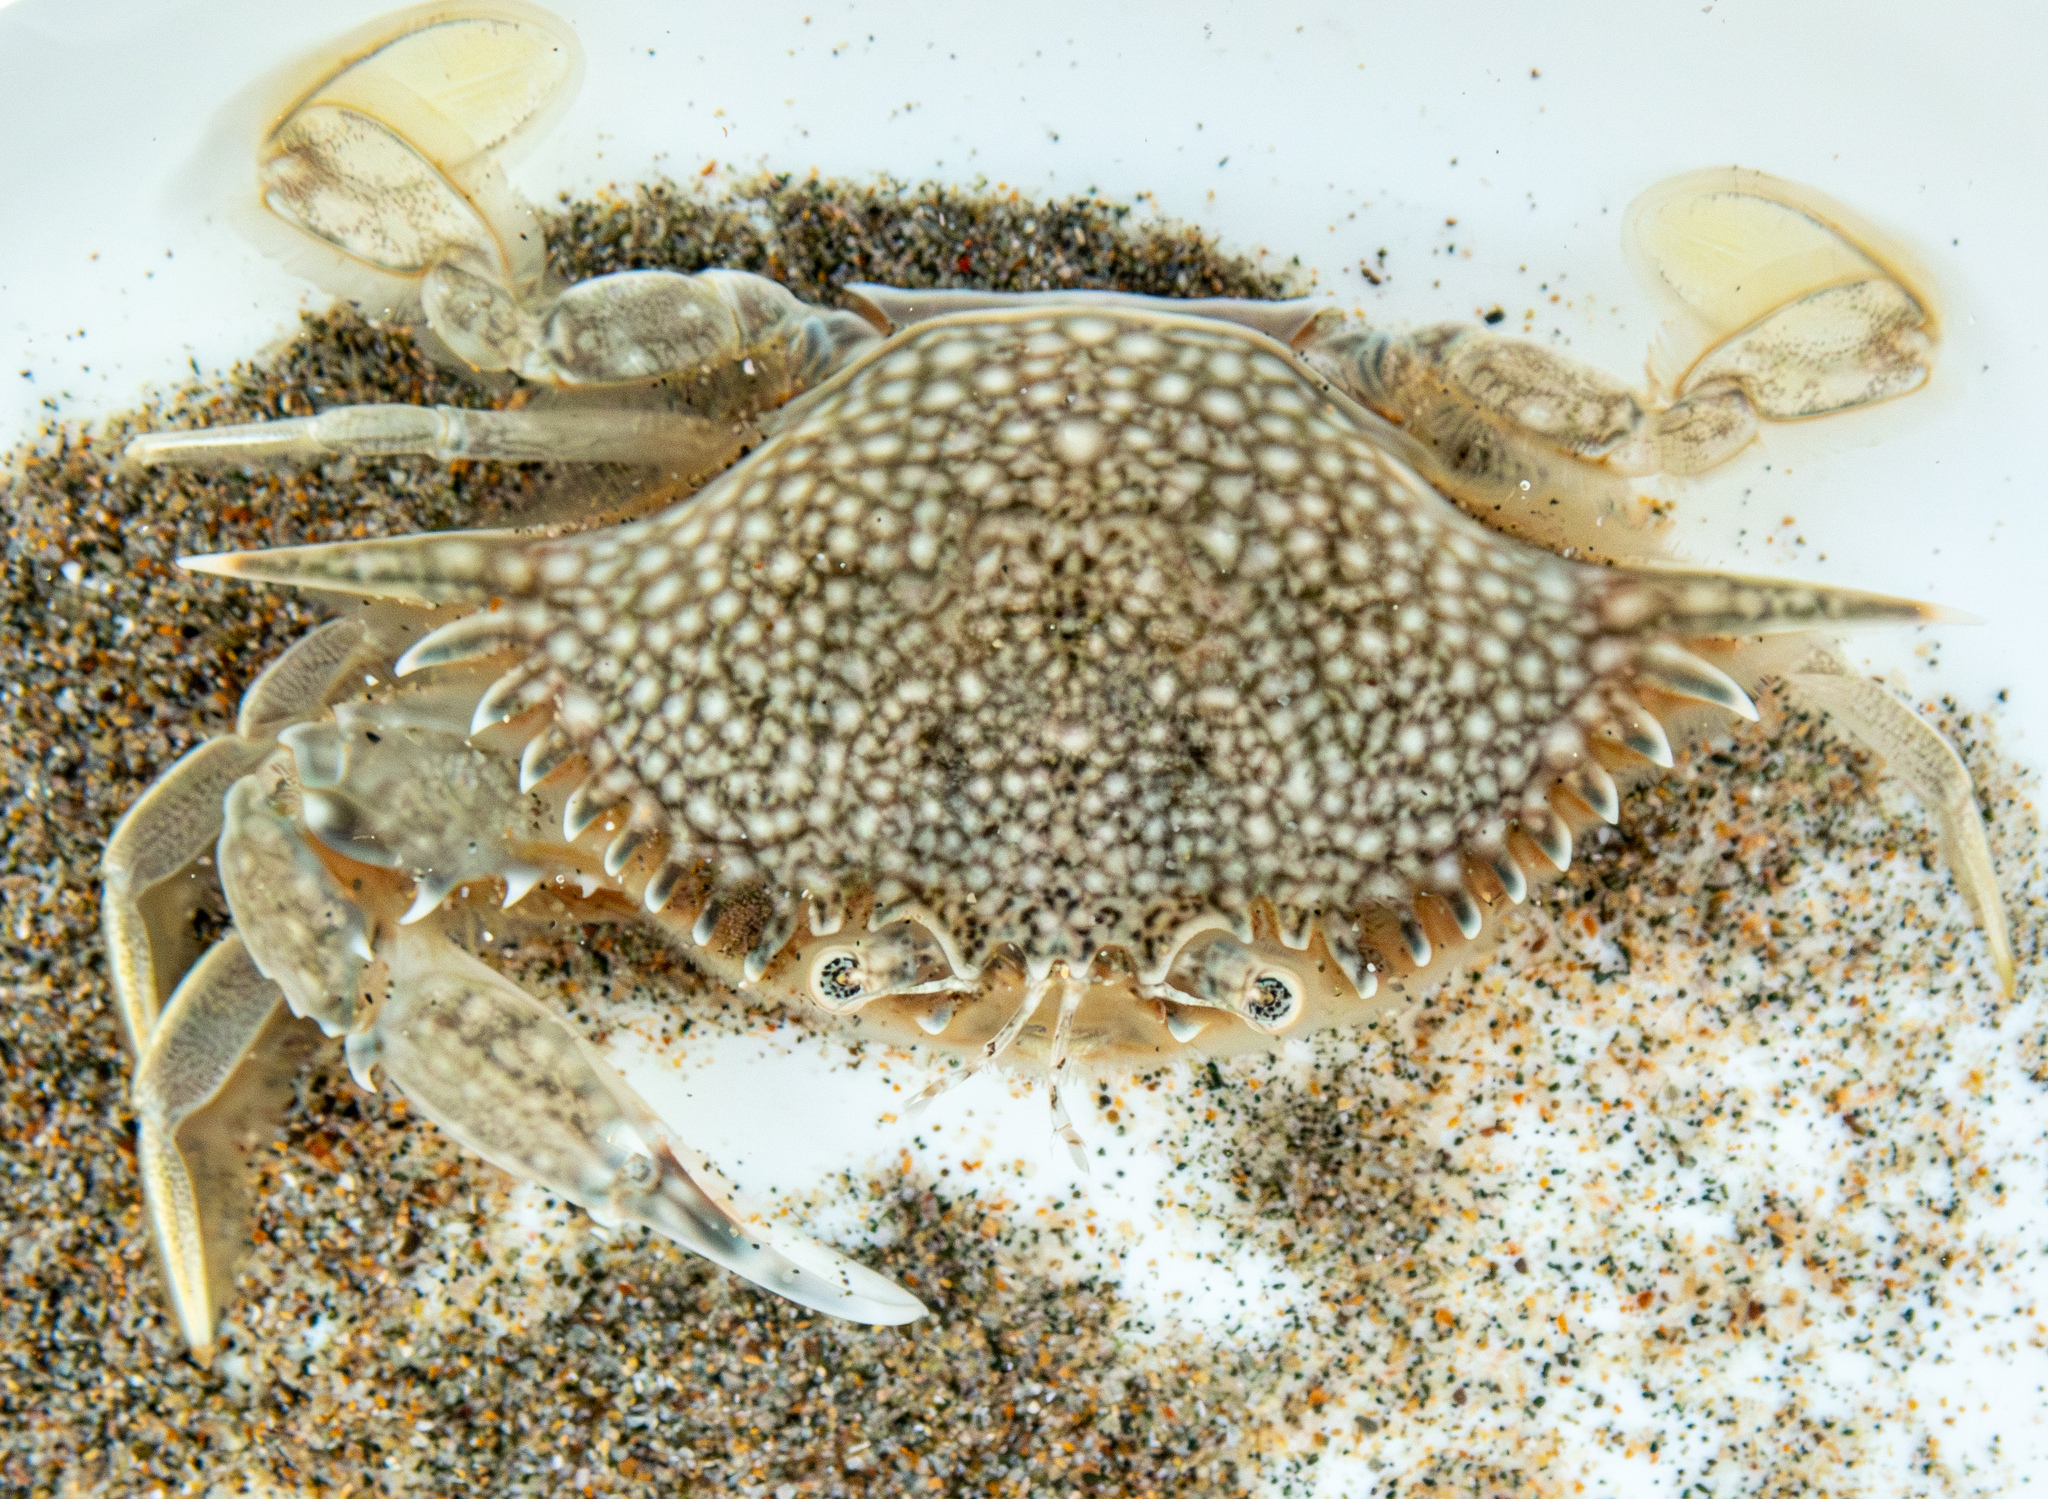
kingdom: Animalia
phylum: Arthropoda
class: Malacostraca
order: Decapoda
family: Portunidae
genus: Arenaeus
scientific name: Arenaeus mexicanus
